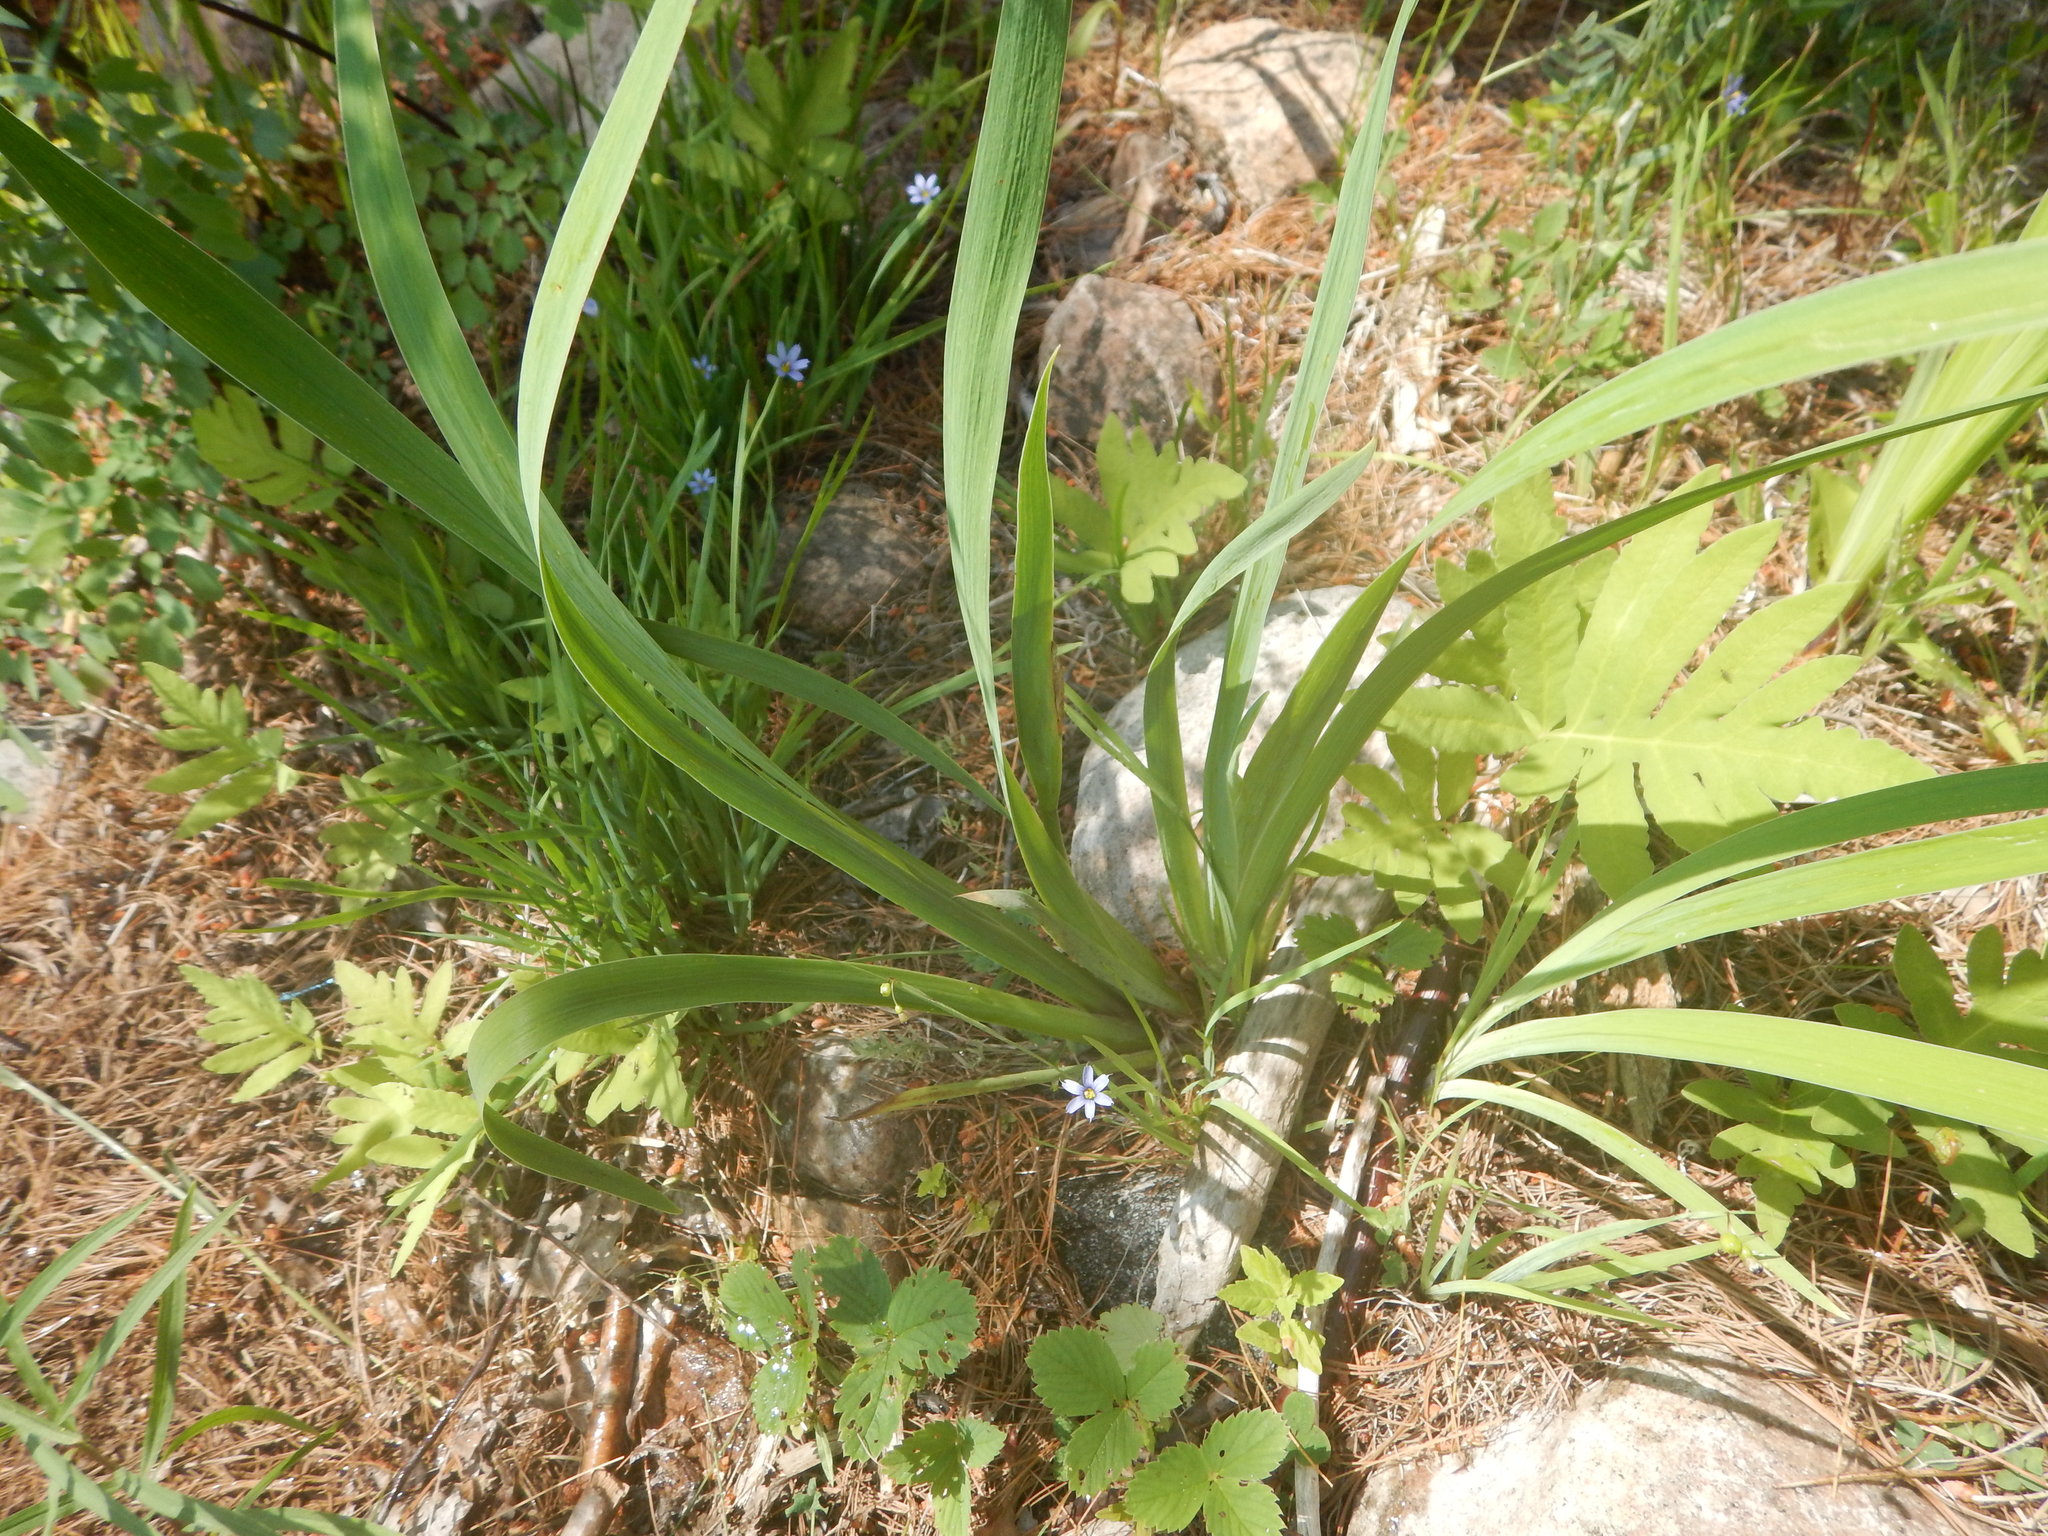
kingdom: Plantae
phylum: Tracheophyta
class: Polypodiopsida
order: Polypodiales
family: Onocleaceae
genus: Onoclea
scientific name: Onoclea sensibilis
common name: Sensitive fern
